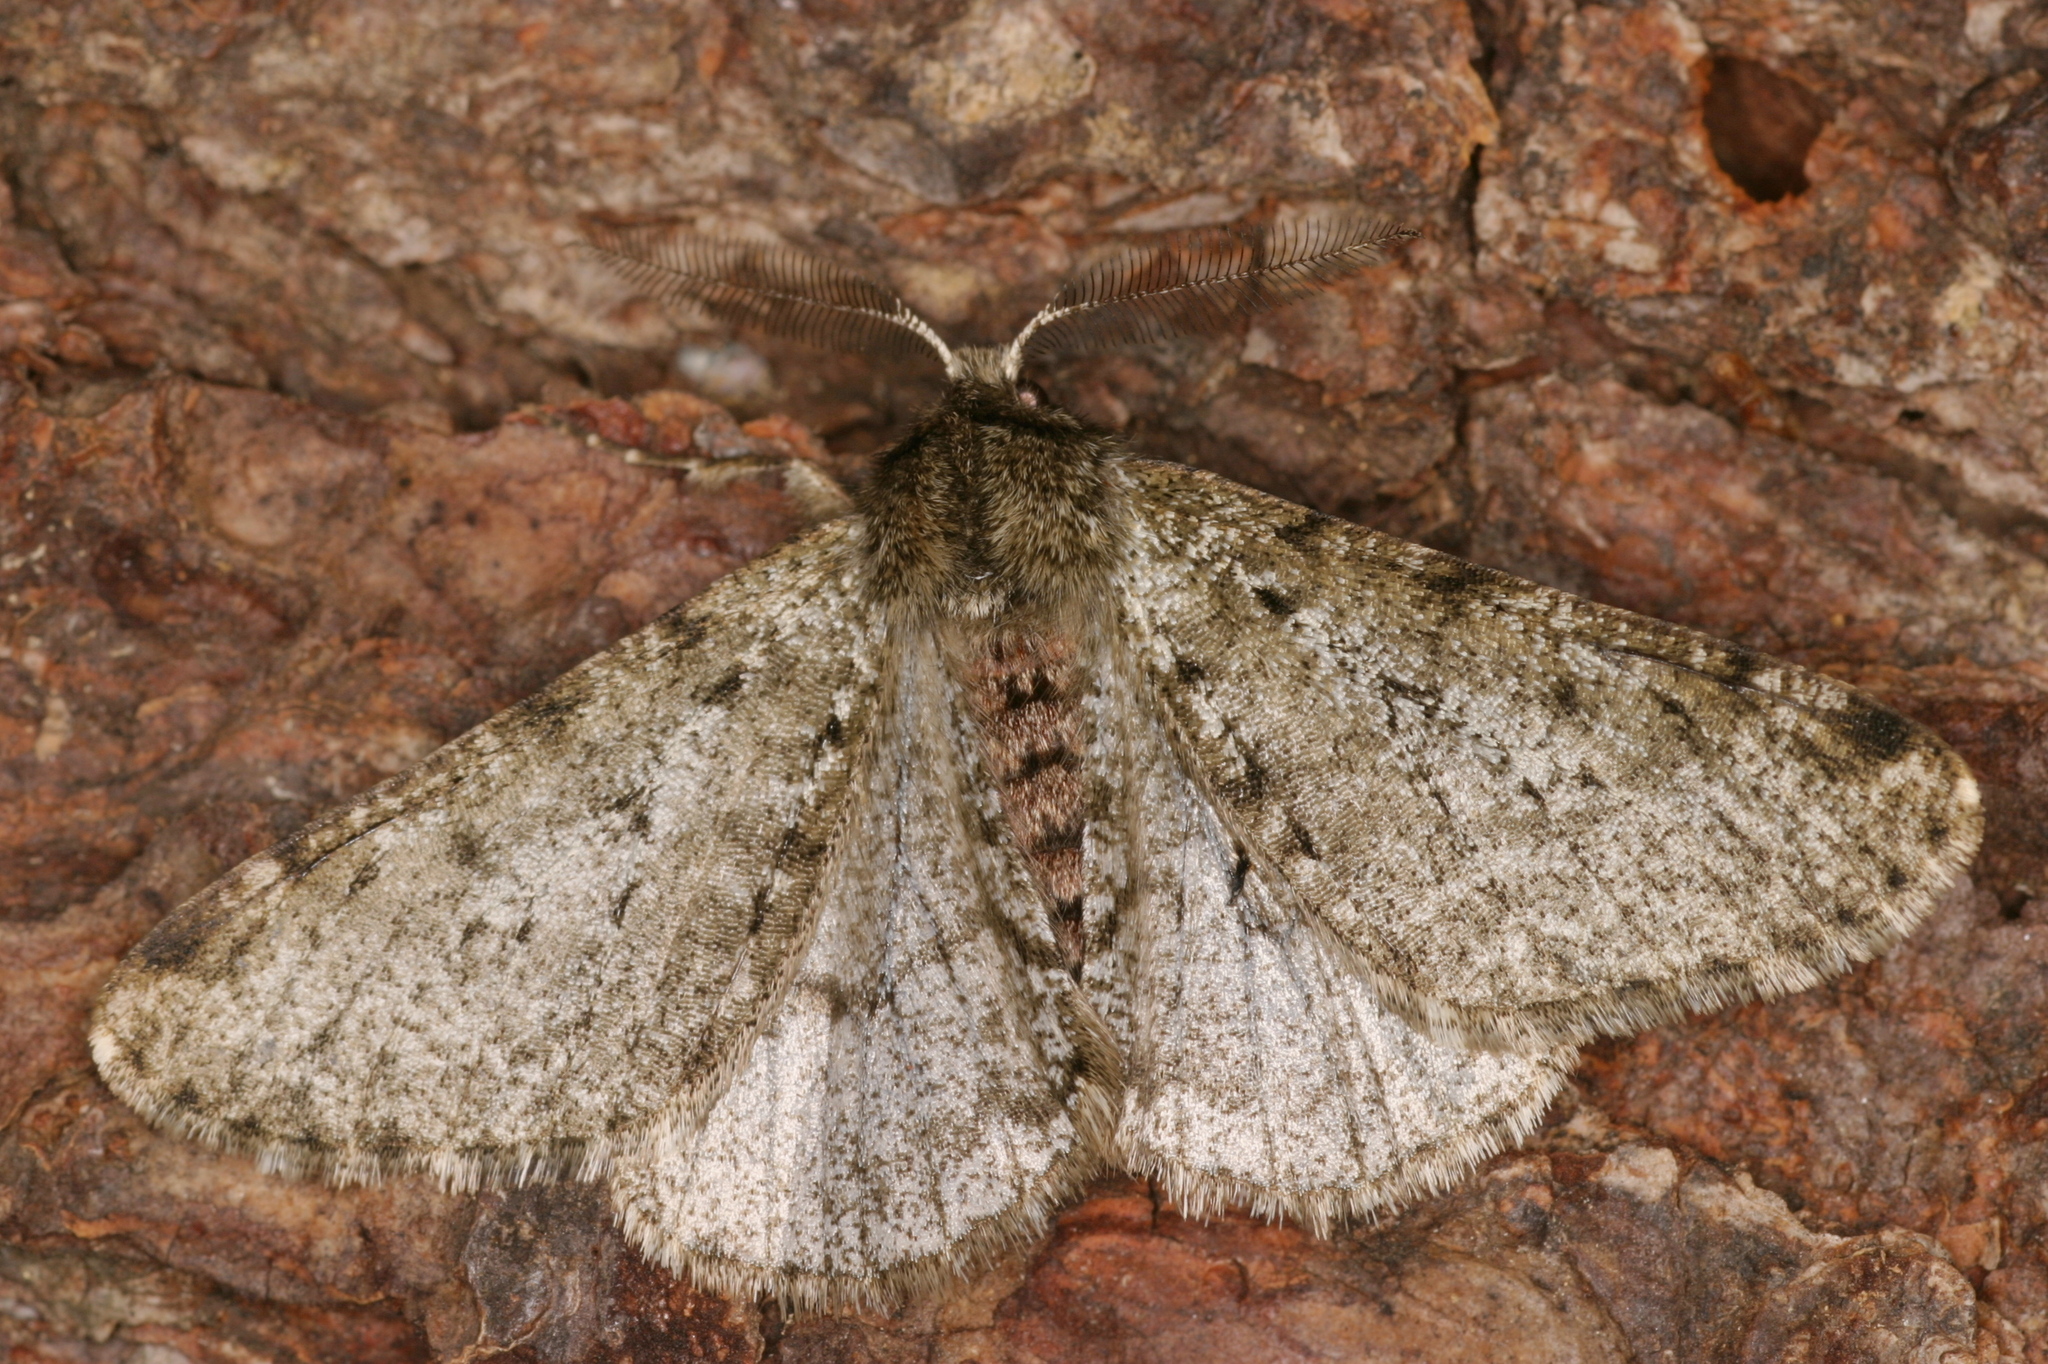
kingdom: Animalia
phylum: Arthropoda
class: Insecta
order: Lepidoptera
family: Geometridae
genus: Phigalia
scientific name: Phigalia pilosaria
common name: Pale brindled beauty
